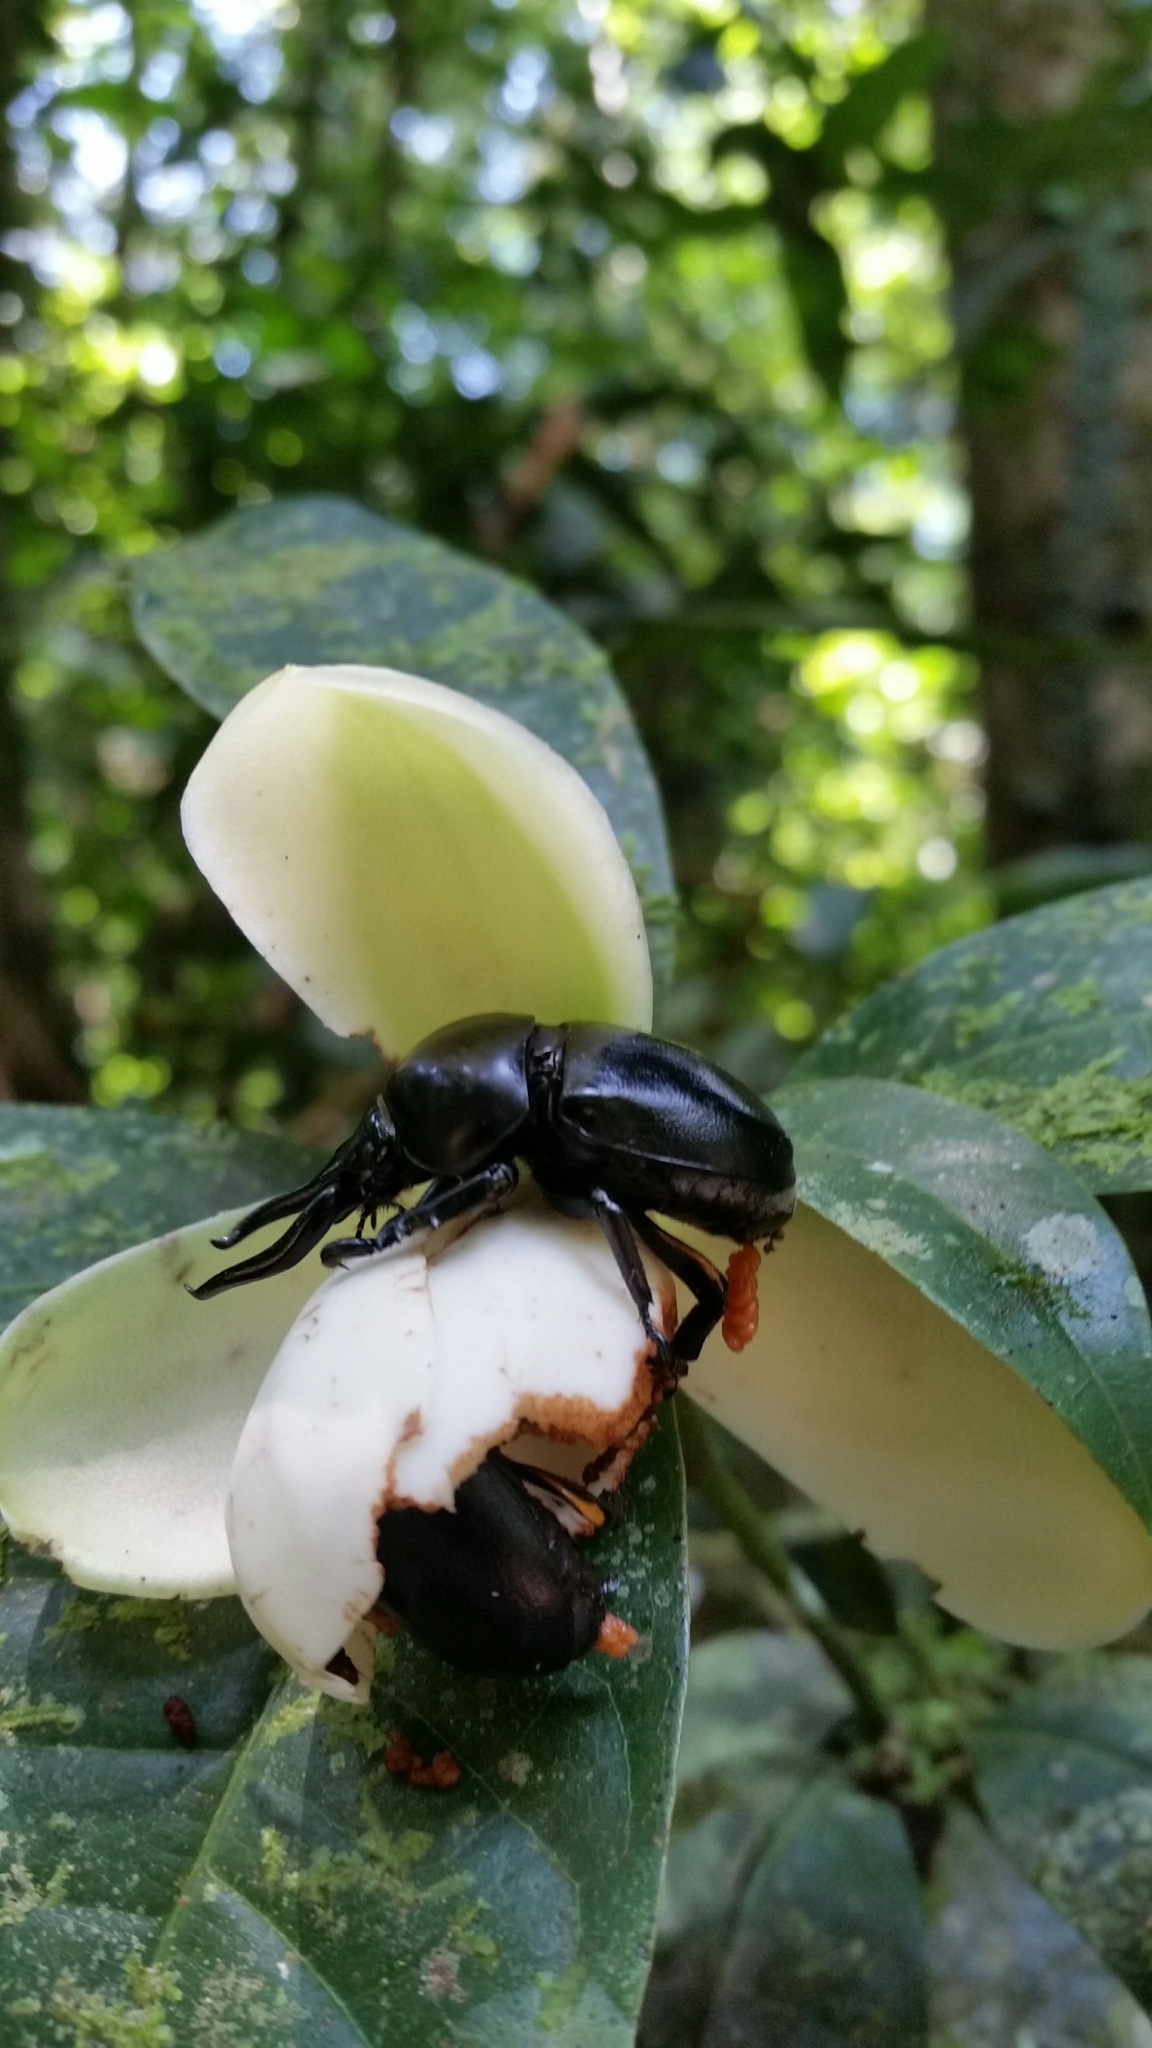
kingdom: Animalia
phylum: Arthropoda
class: Insecta
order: Coleoptera
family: Scarabaeidae
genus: Fruhstorferia
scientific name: Fruhstorferia anthracina
